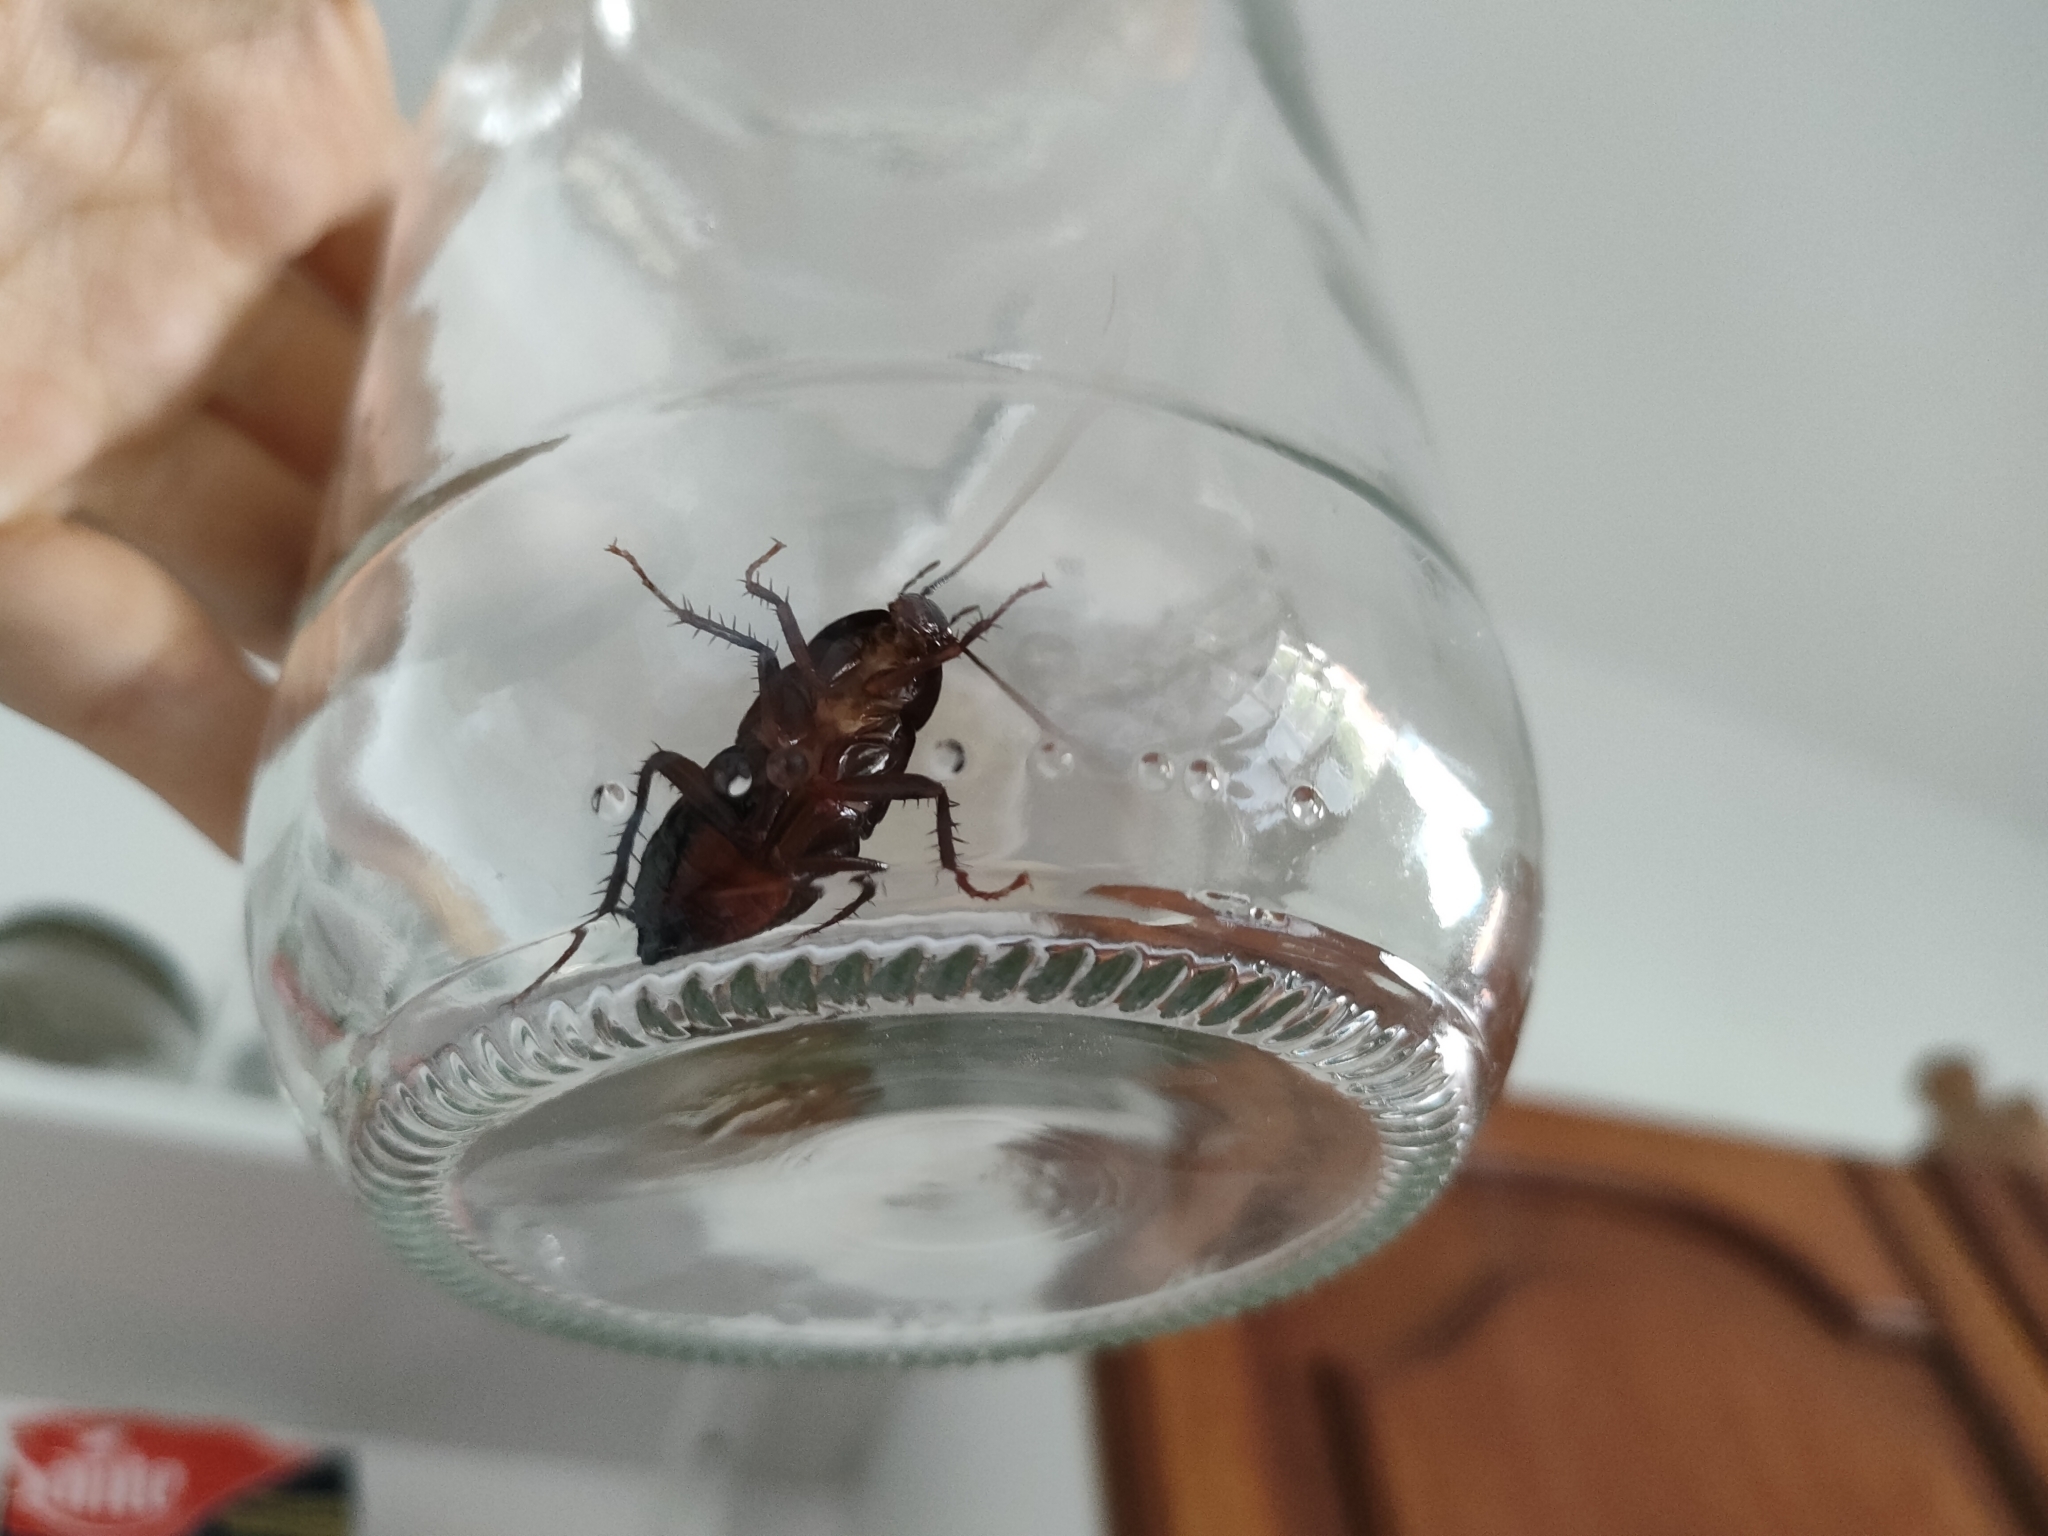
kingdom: Animalia
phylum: Arthropoda
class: Insecta
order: Blattodea
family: Blattidae
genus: Blatta
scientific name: Blatta orientalis
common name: Oriental cockroach
